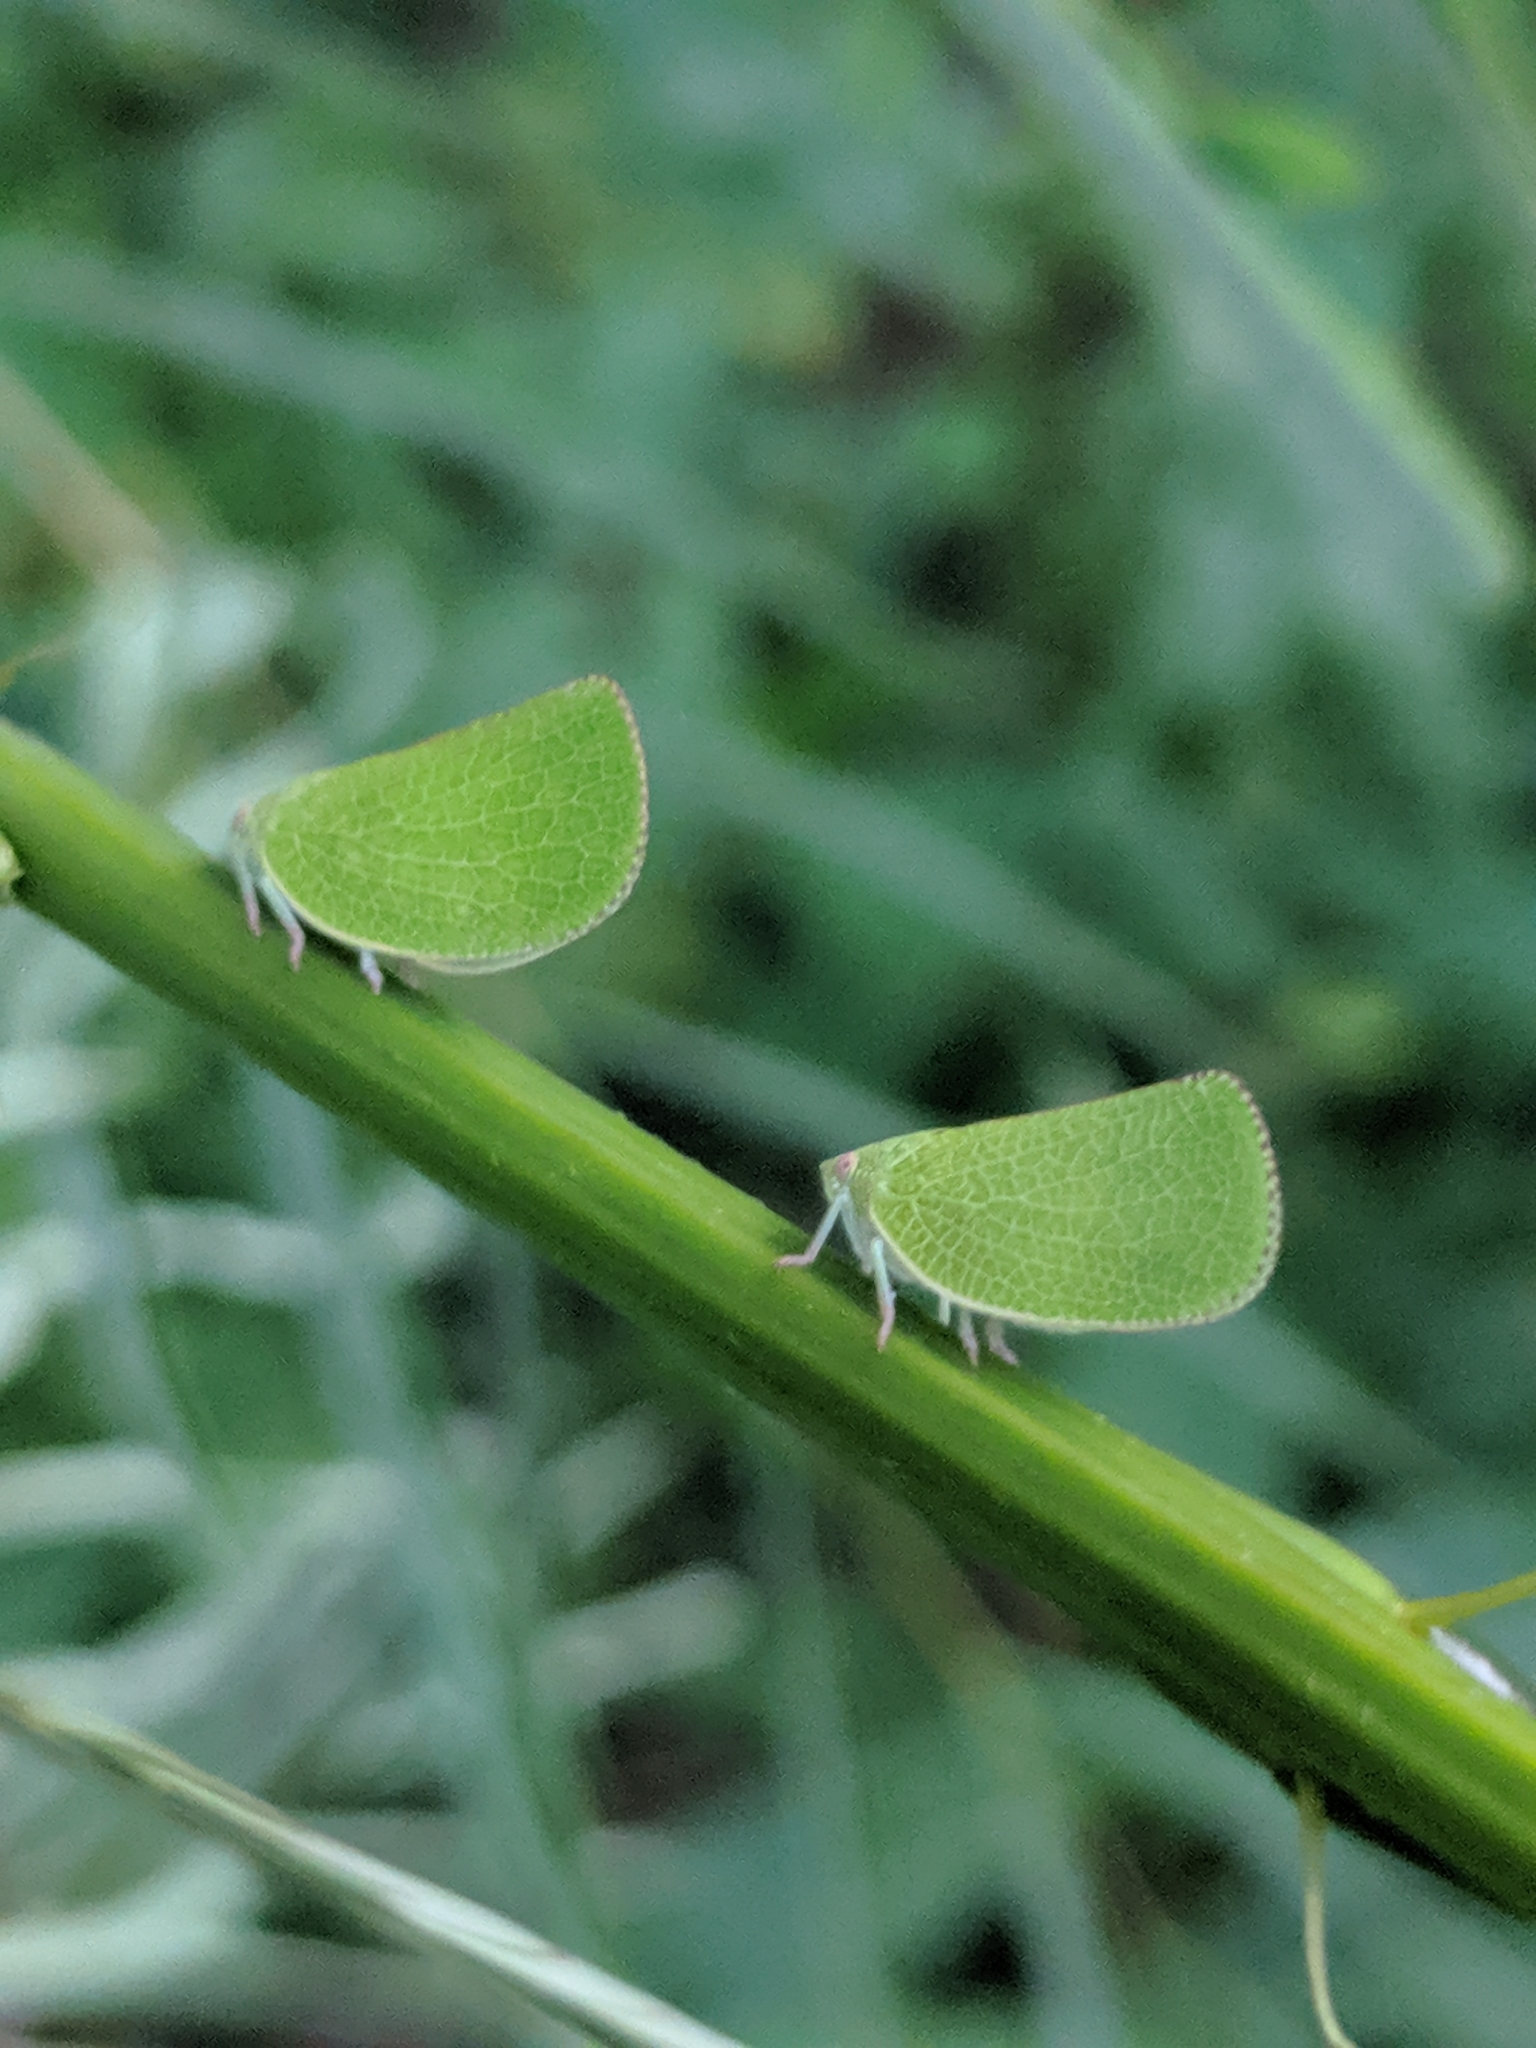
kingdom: Animalia
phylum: Arthropoda
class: Insecta
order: Hemiptera
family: Acanaloniidae
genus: Acanalonia
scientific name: Acanalonia conica
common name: Green cone-headed planthopper
